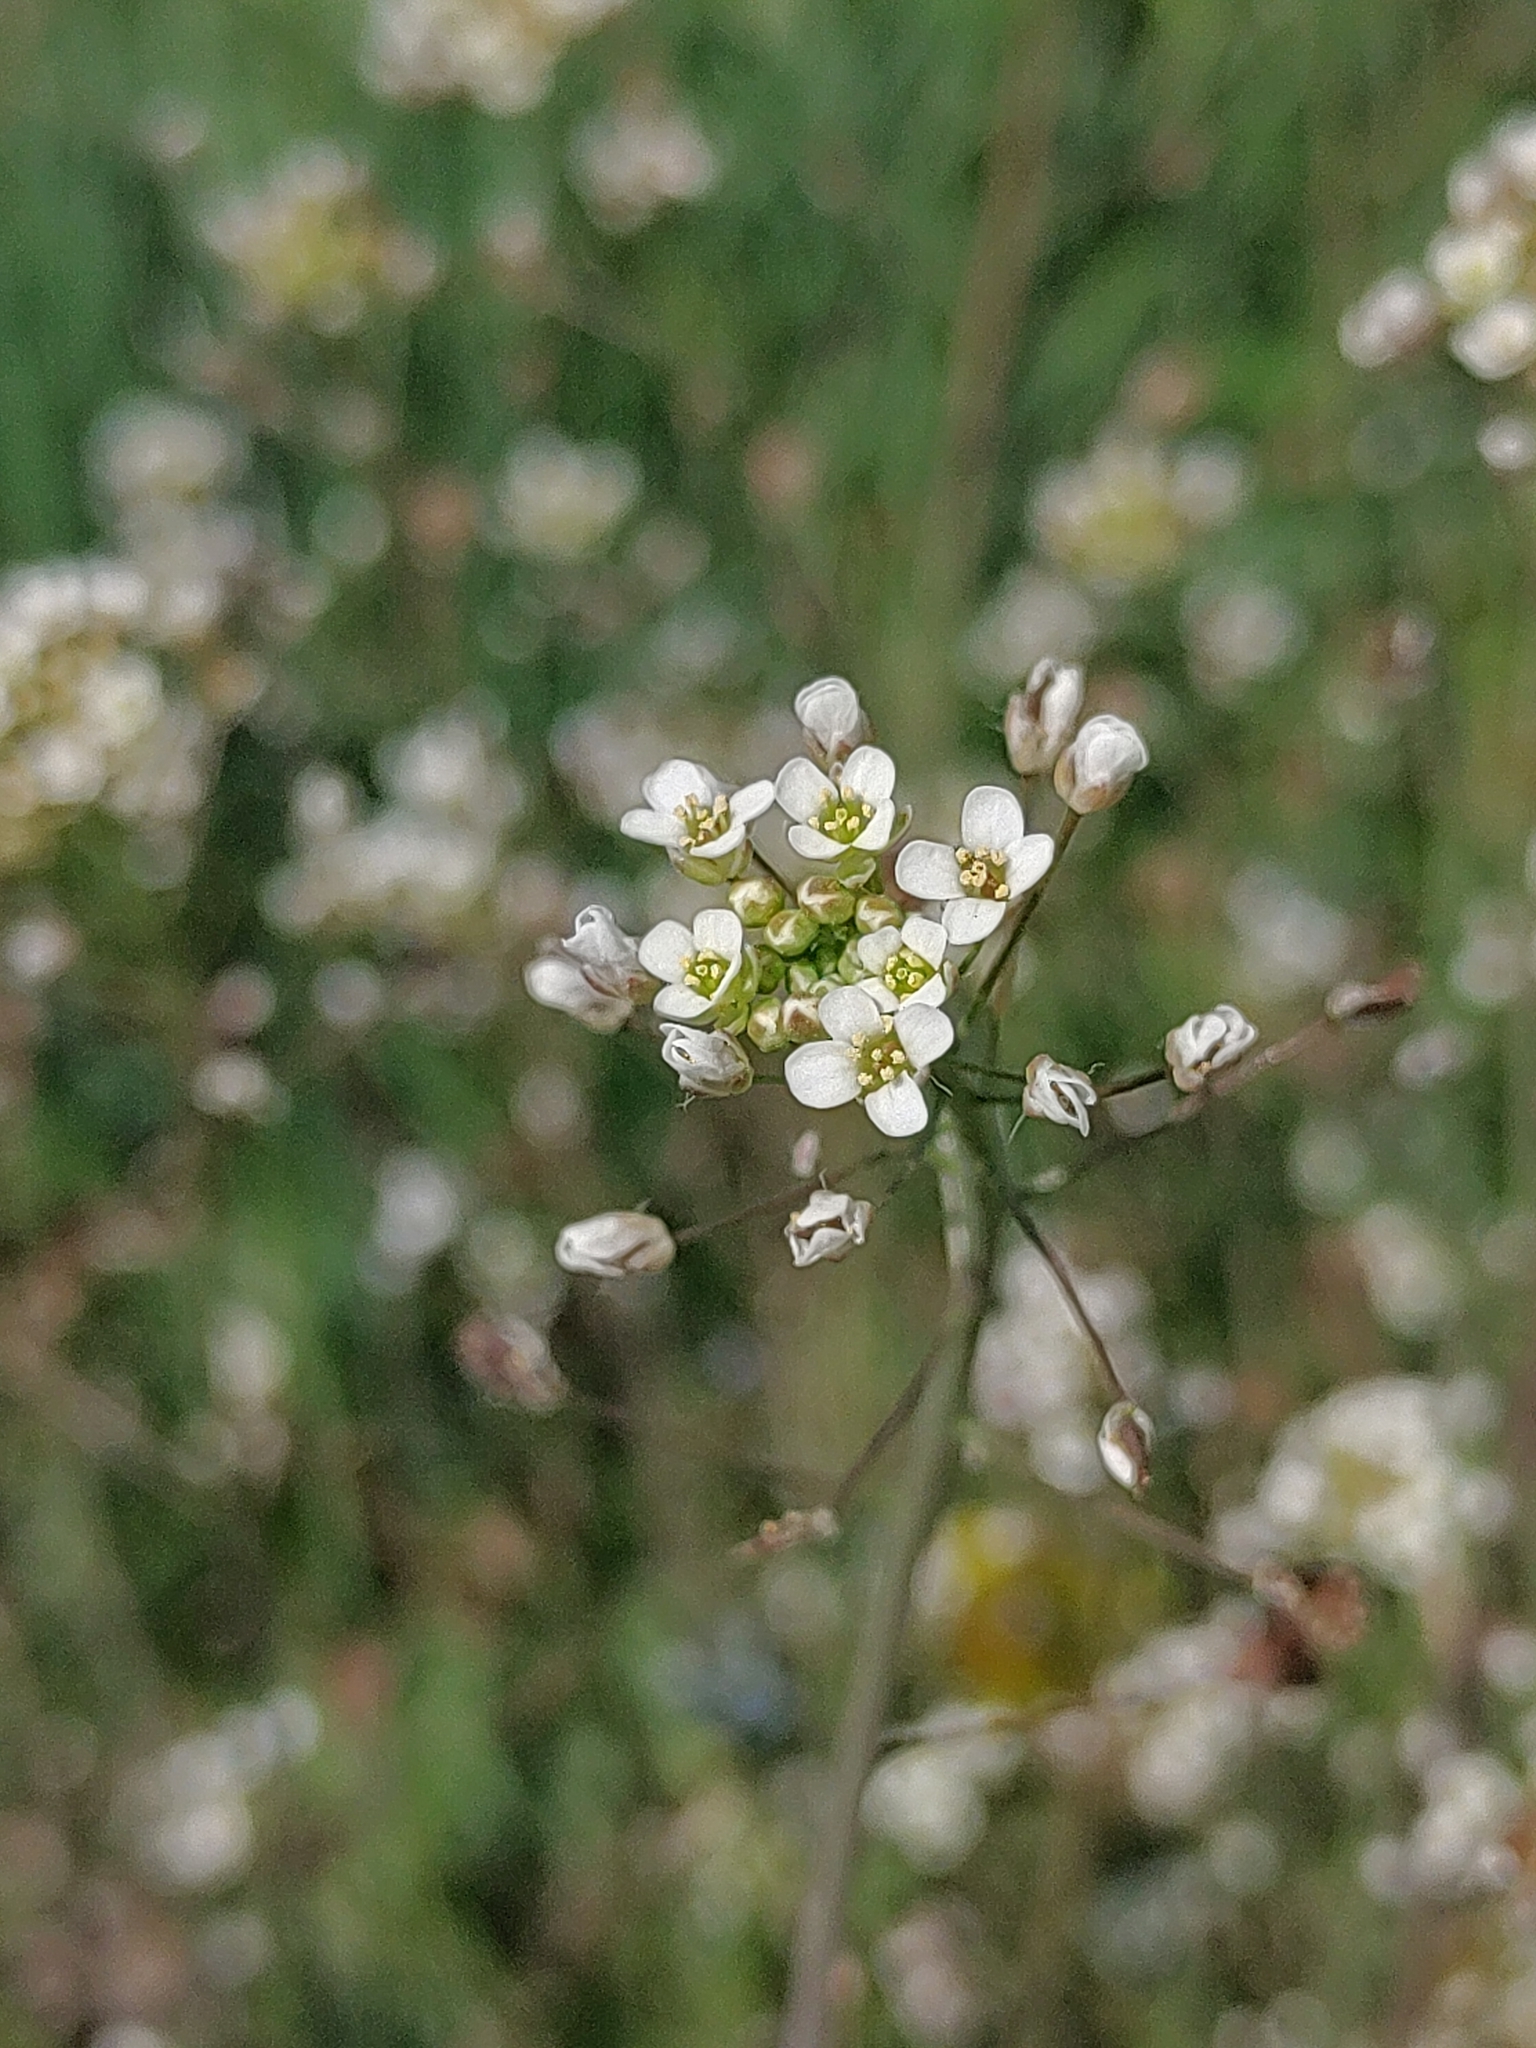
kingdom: Plantae
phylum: Tracheophyta
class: Magnoliopsida
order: Brassicales
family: Brassicaceae
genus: Capsella
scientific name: Capsella bursa-pastoris
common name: Shepherd's purse
